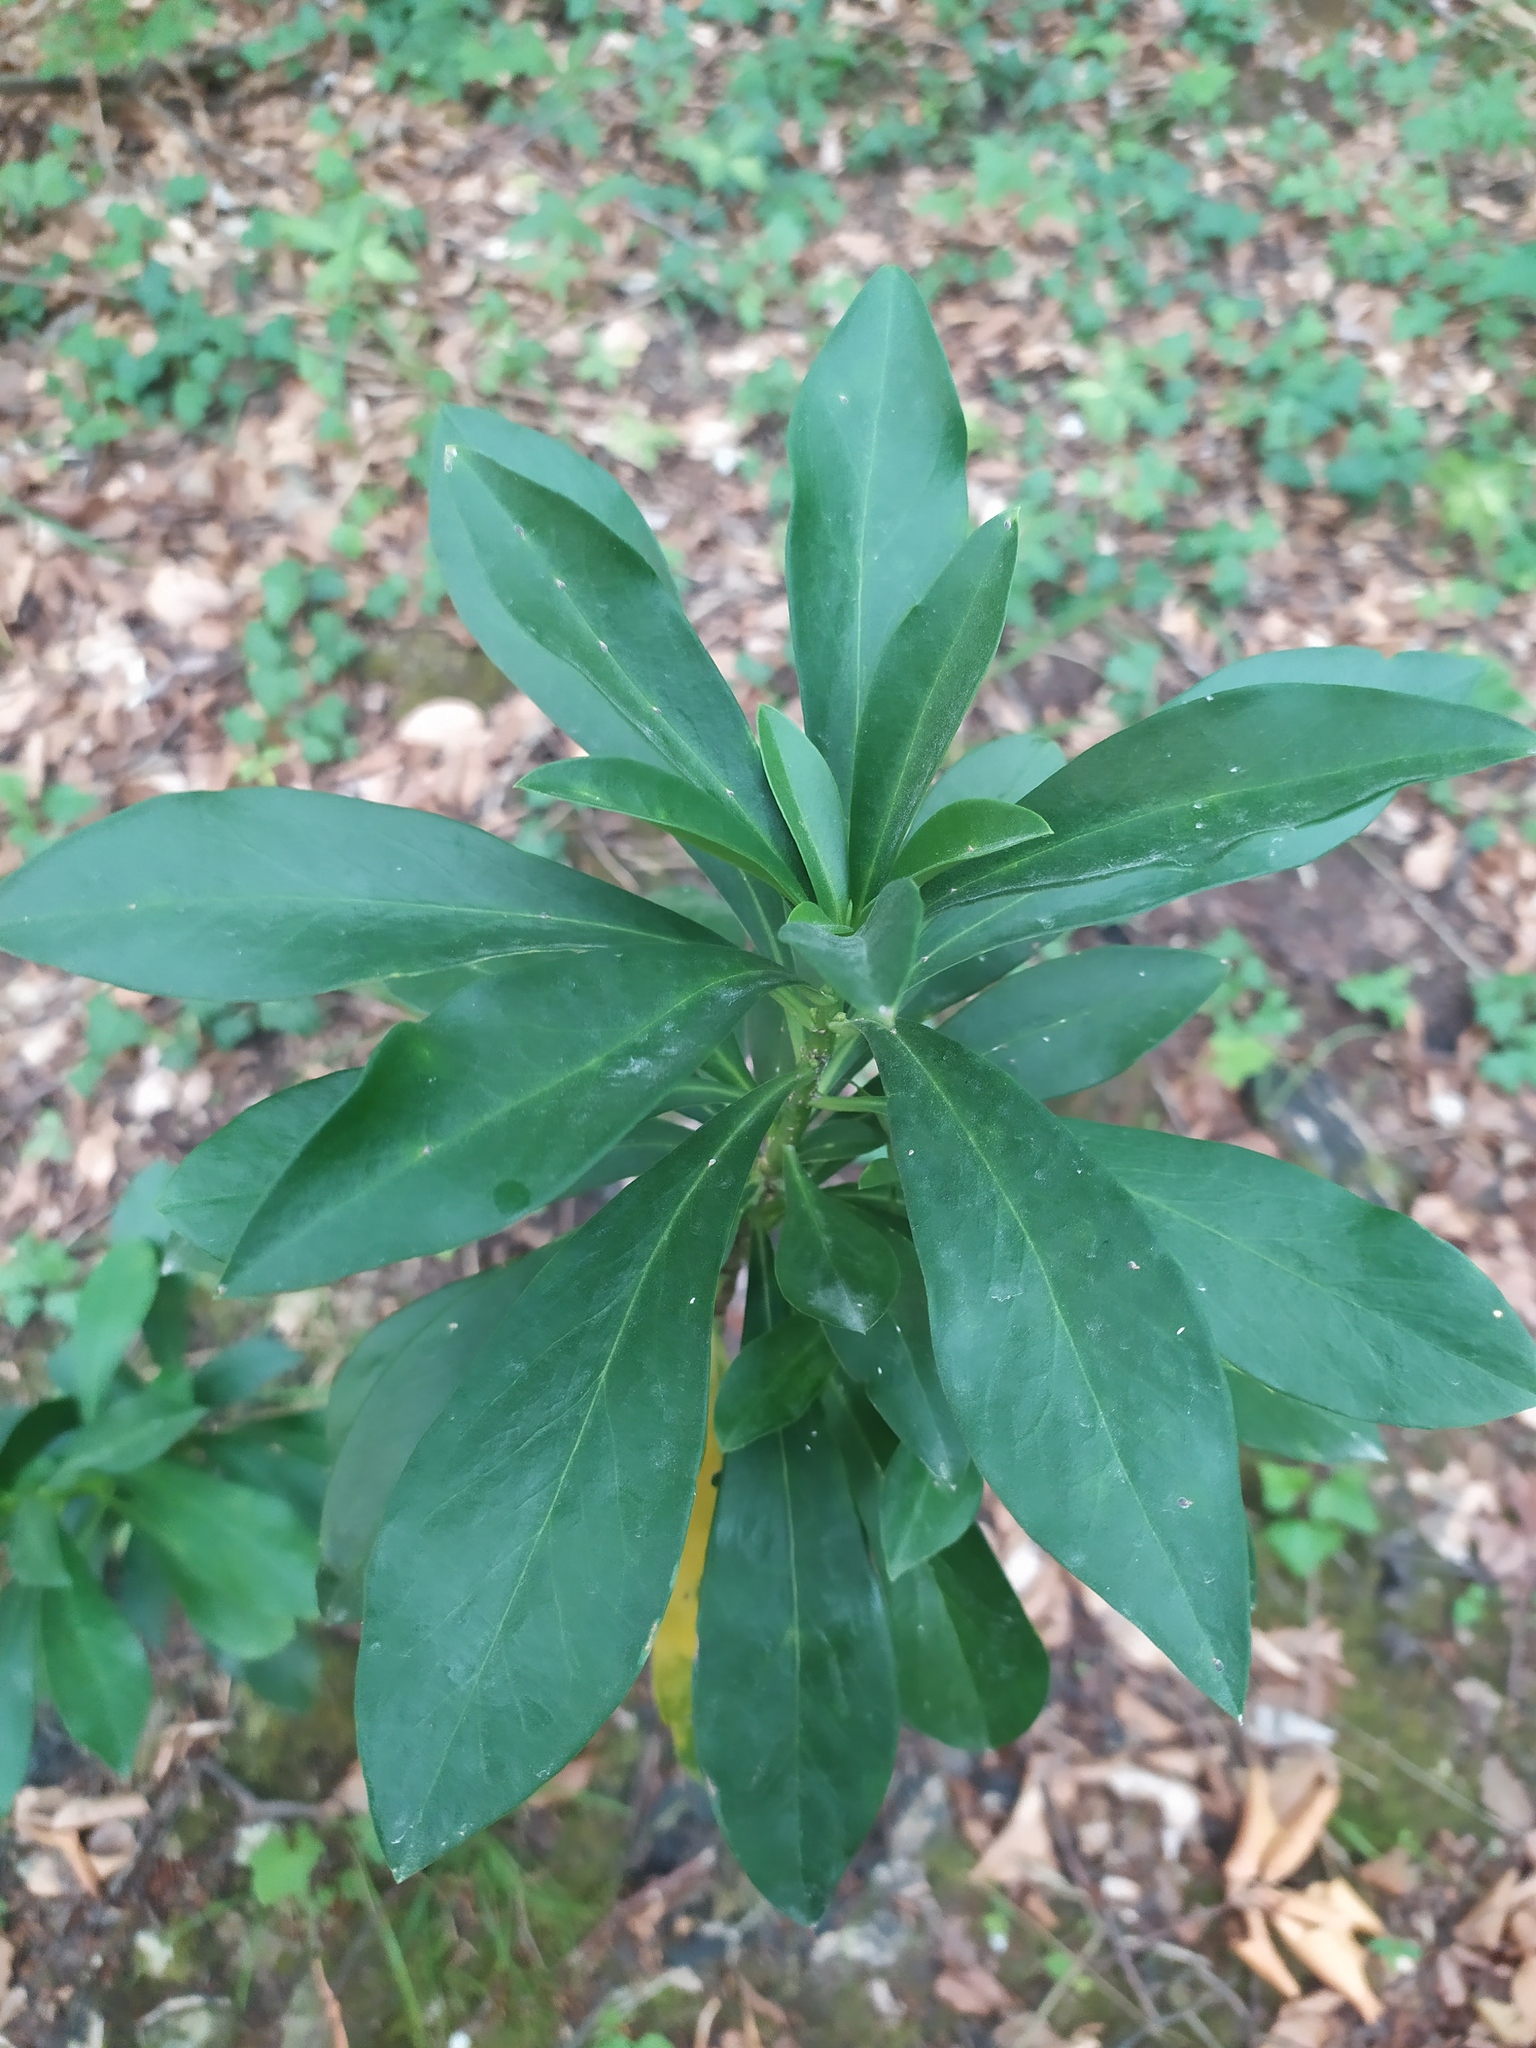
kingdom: Plantae
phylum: Tracheophyta
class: Magnoliopsida
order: Malvales
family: Thymelaeaceae
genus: Daphne
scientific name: Daphne laureola
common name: Spurge-laurel
